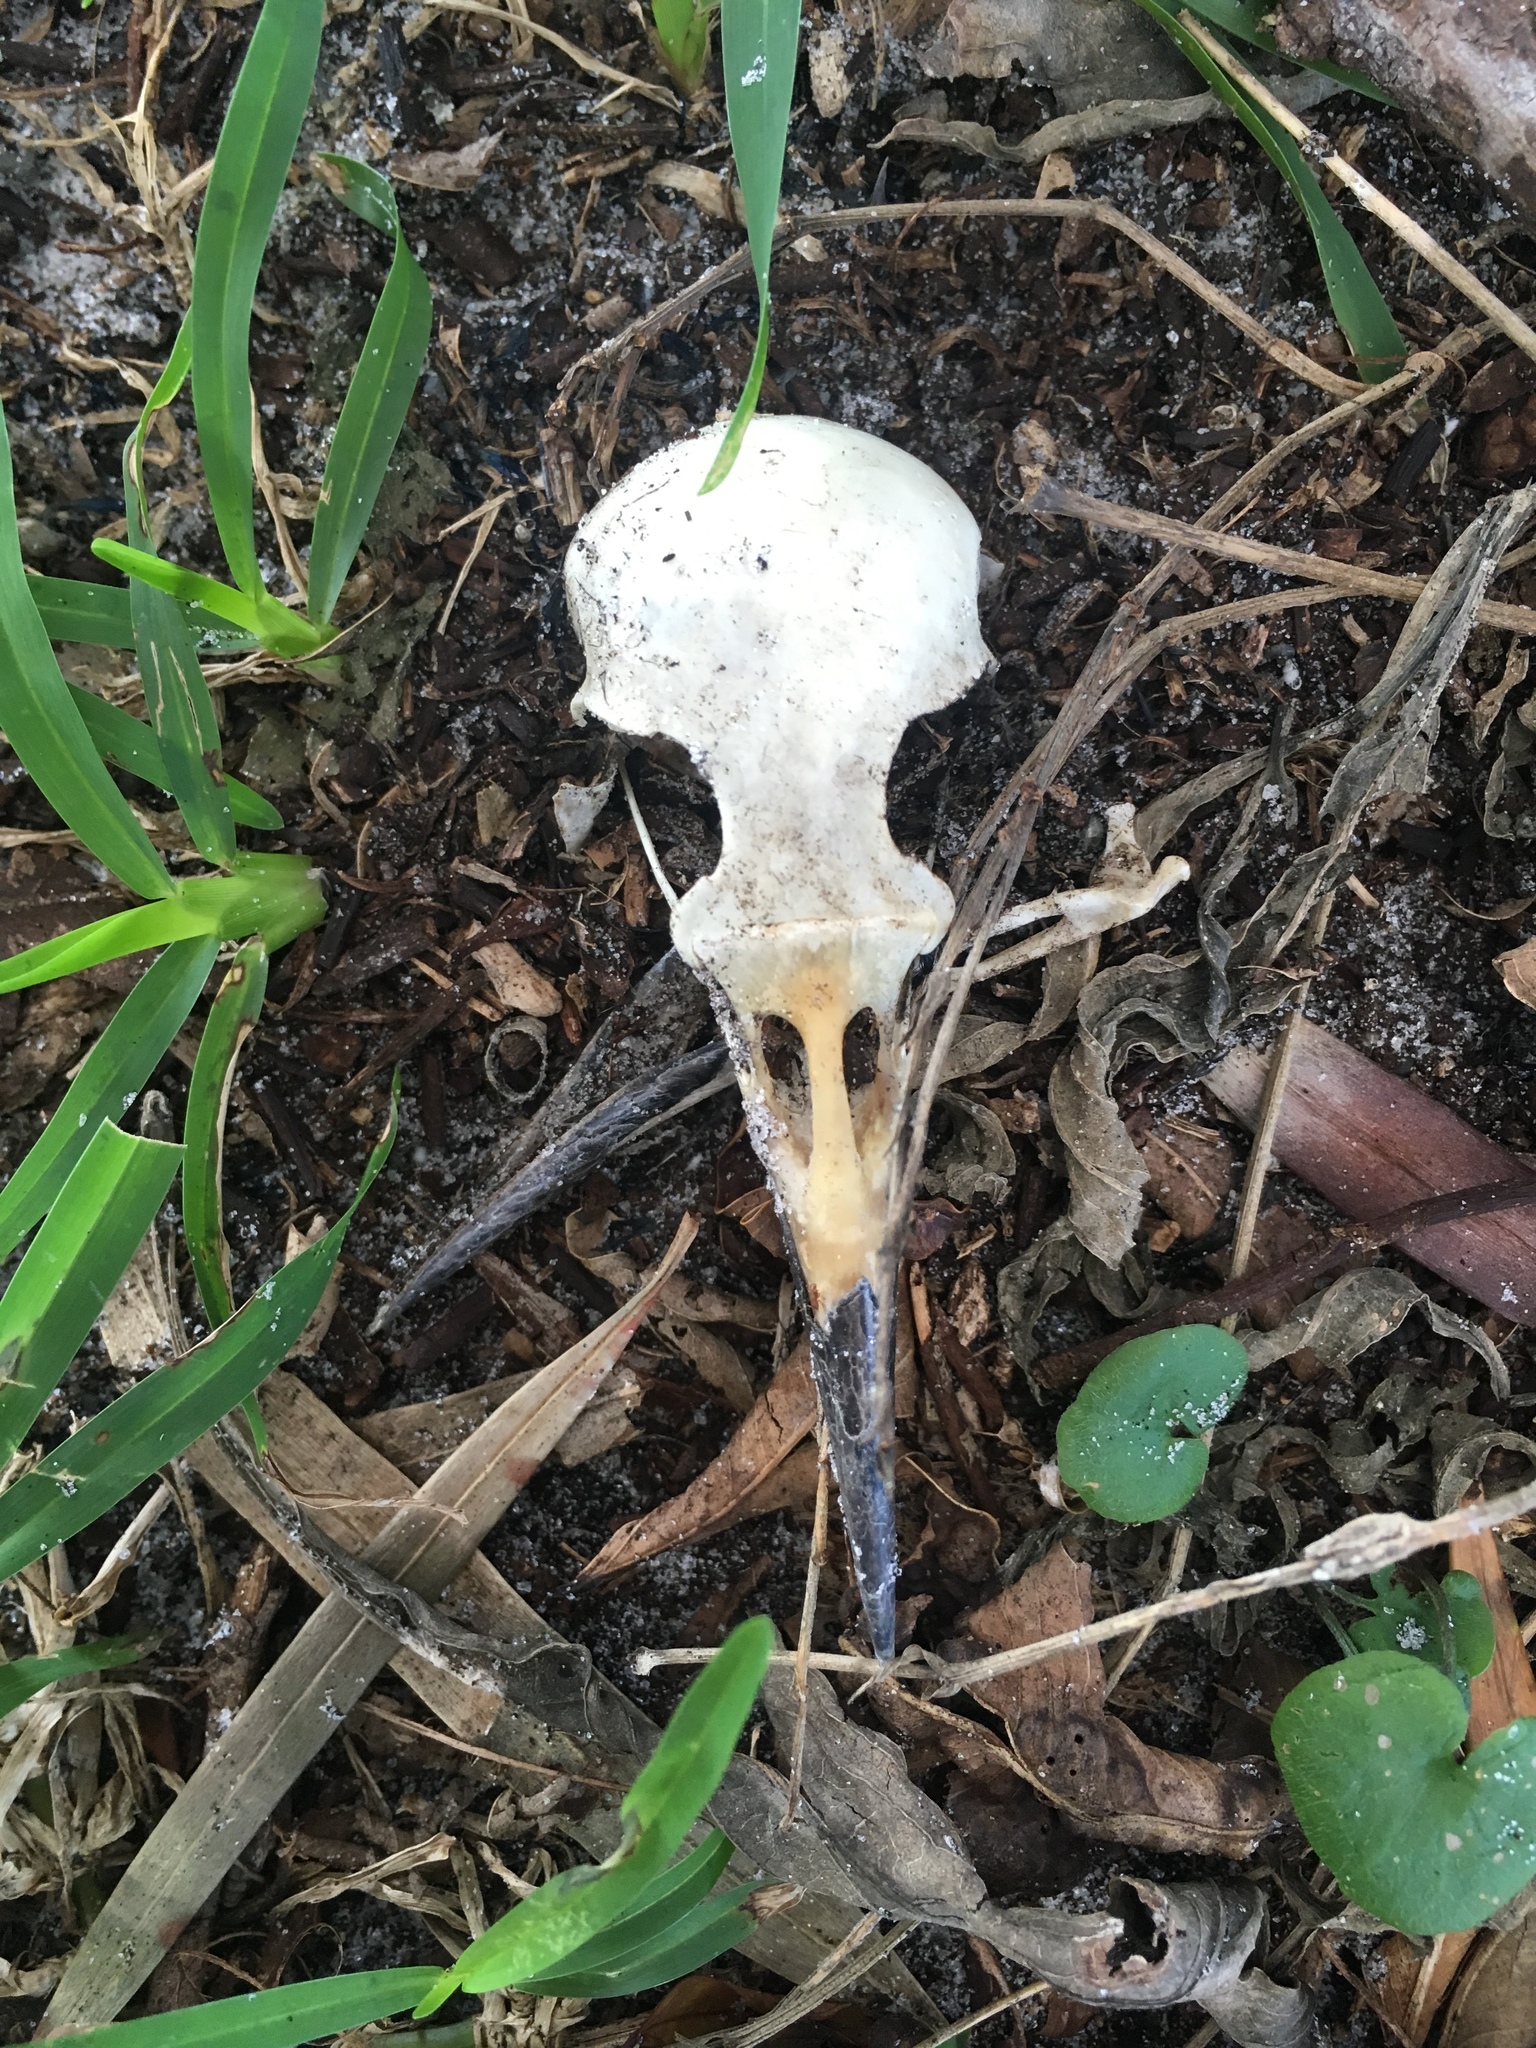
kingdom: Animalia
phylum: Chordata
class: Aves
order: Passeriformes
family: Corvidae
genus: Corvus
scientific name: Corvus ossifragus
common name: Fish crow
